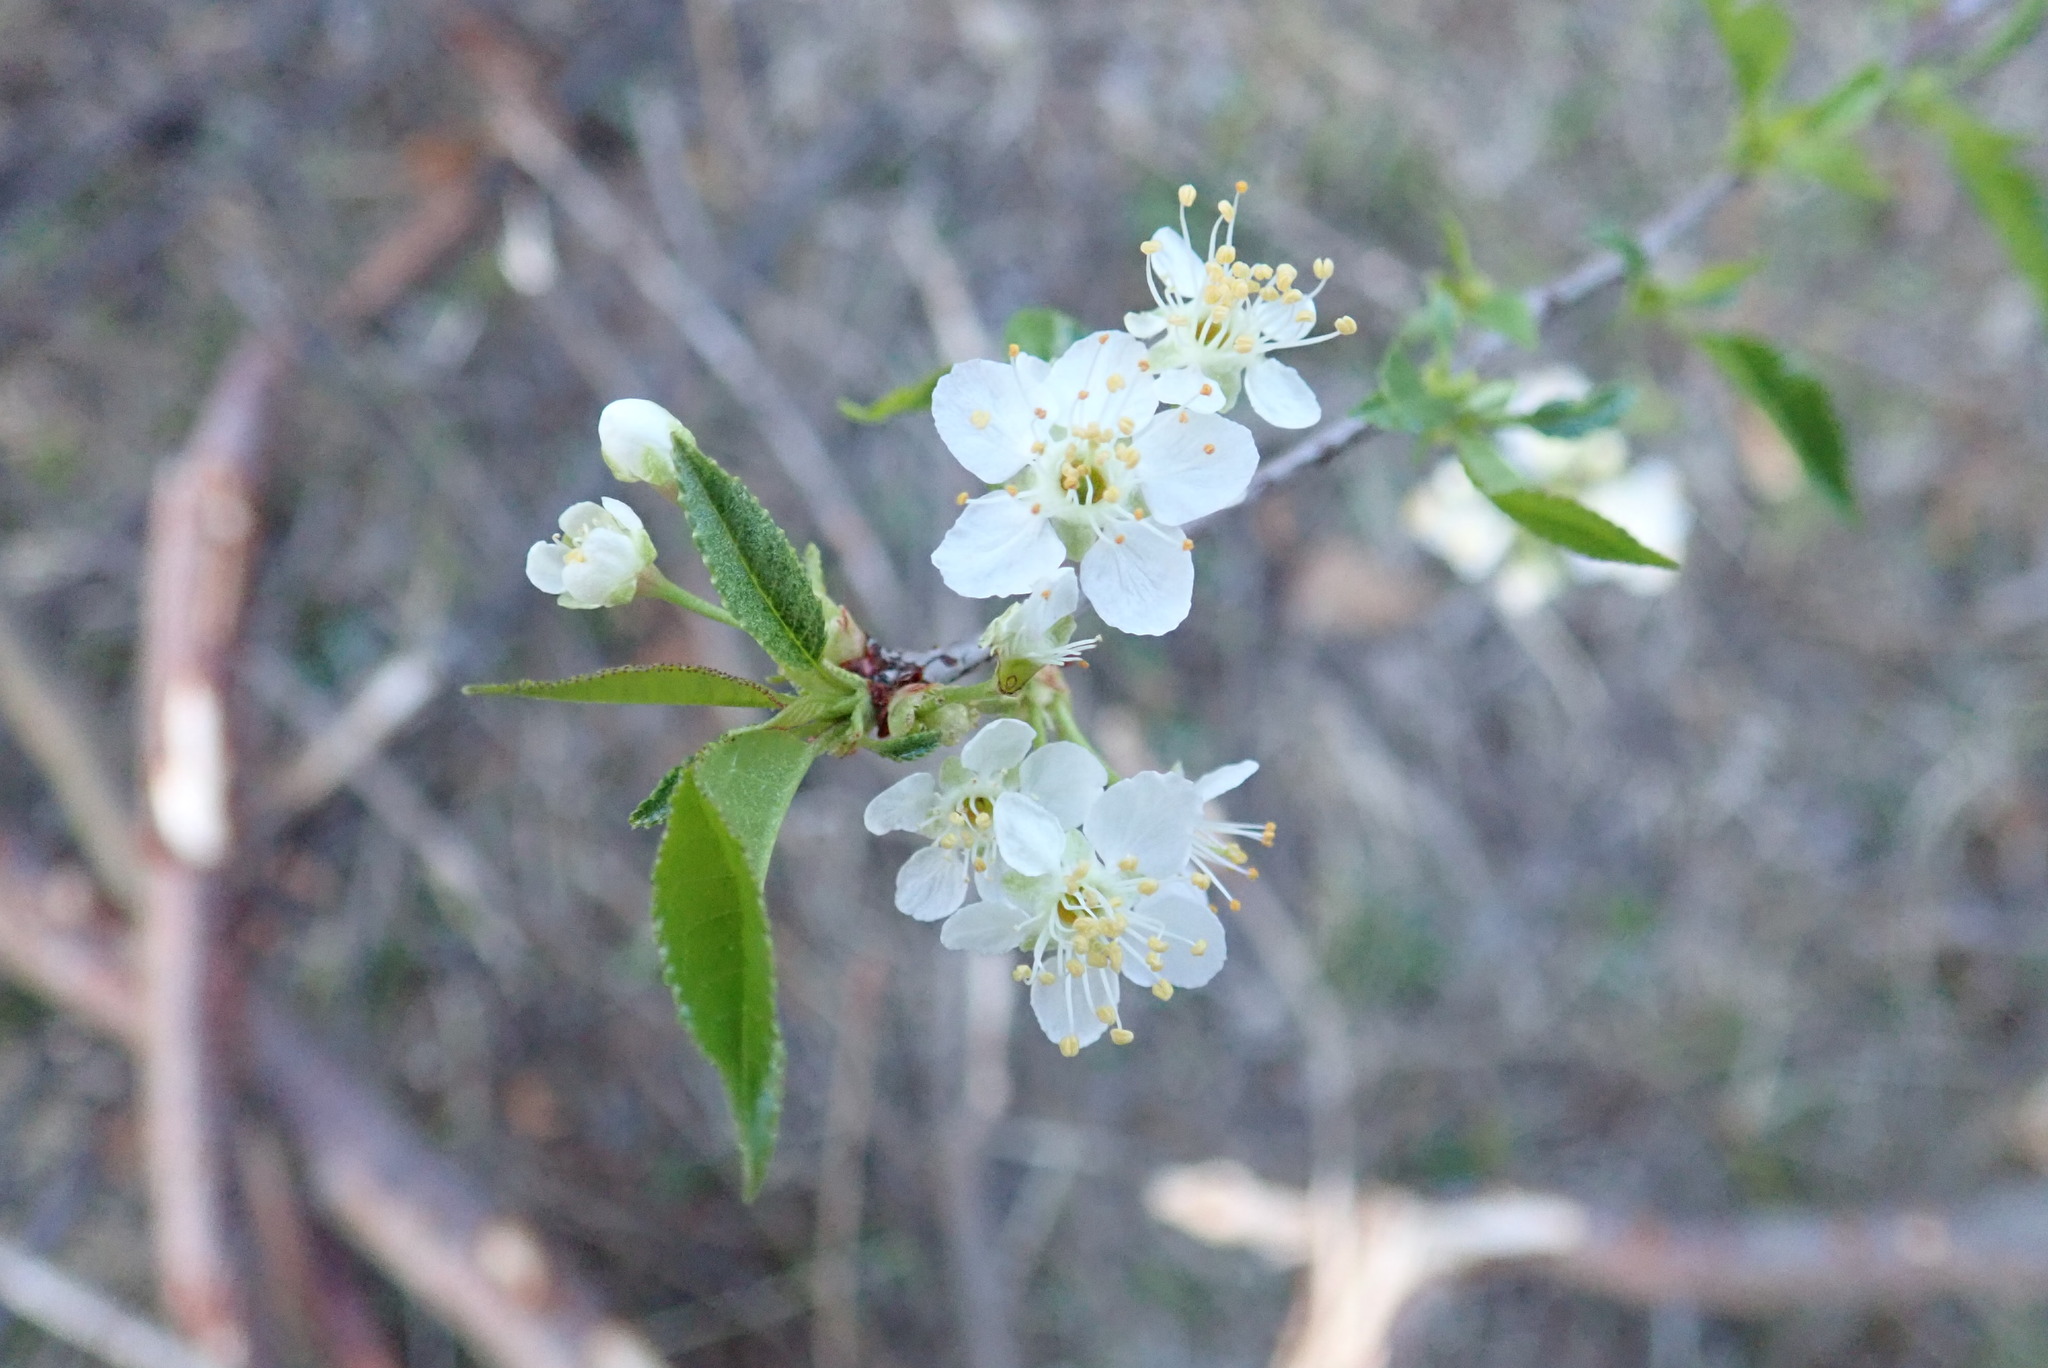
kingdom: Plantae
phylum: Tracheophyta
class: Magnoliopsida
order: Rosales
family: Rosaceae
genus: Prunus
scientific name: Prunus pensylvanica
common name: Pin cherry
